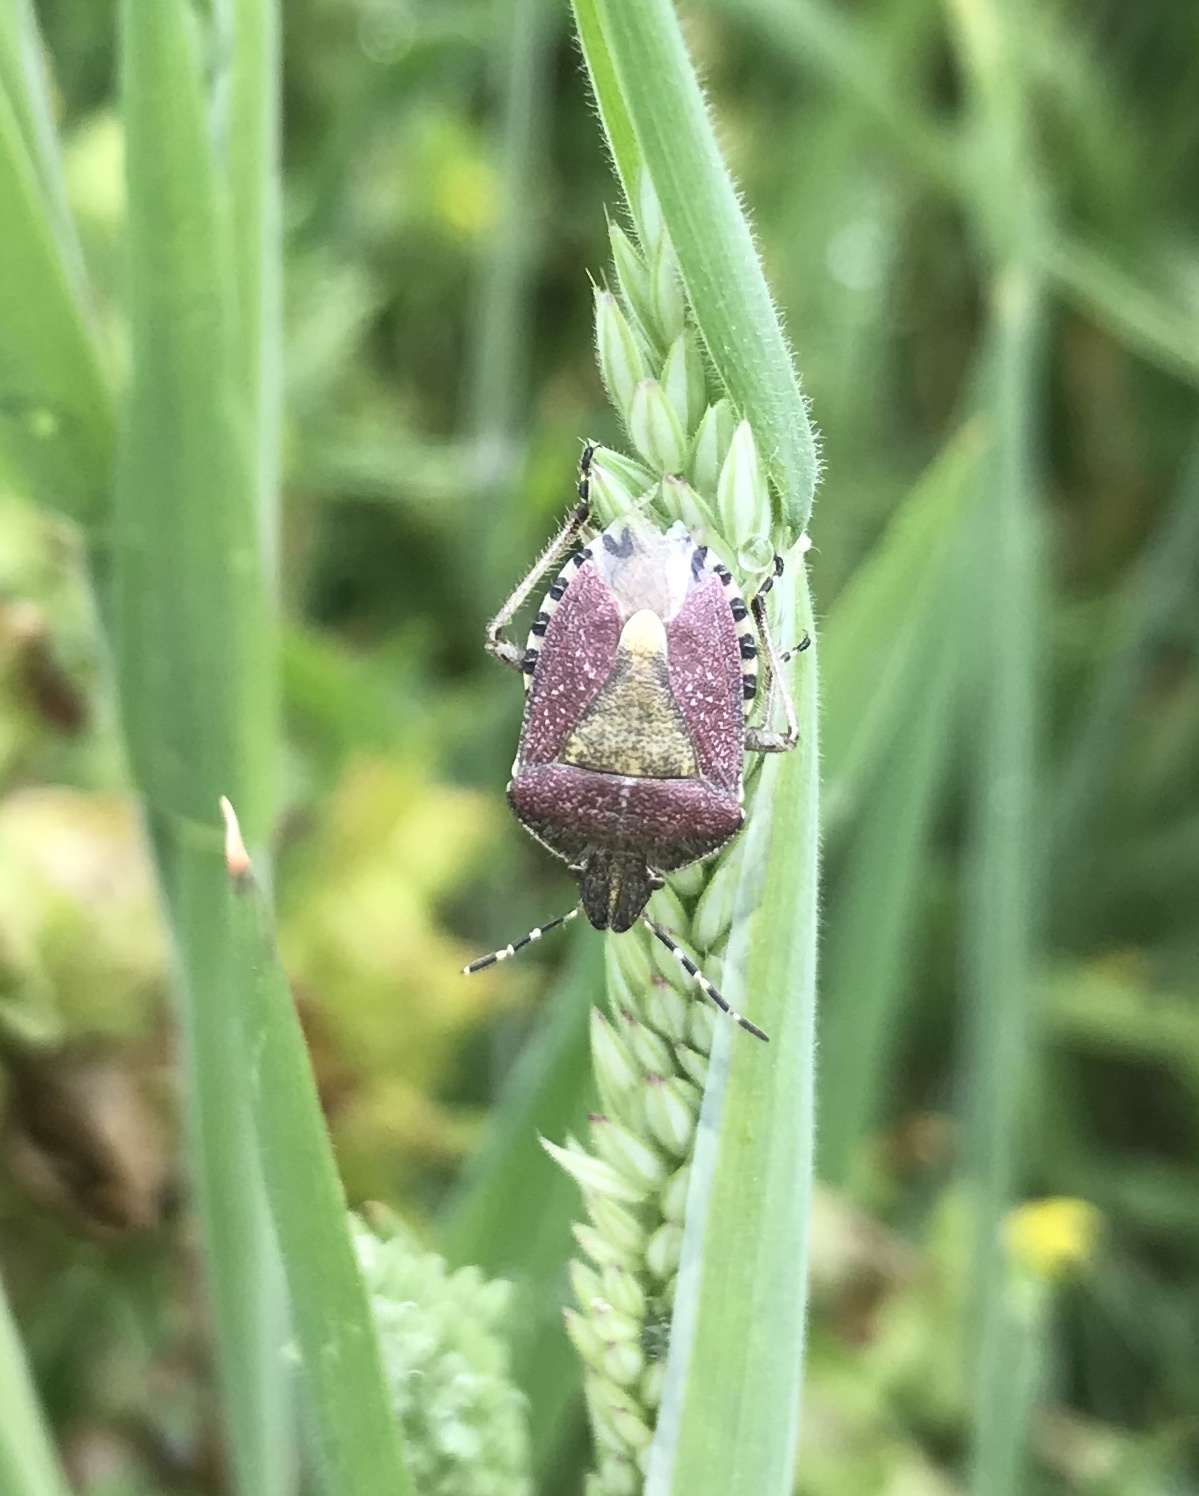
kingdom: Animalia
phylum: Arthropoda
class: Insecta
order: Hemiptera
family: Pentatomidae
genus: Dolycoris
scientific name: Dolycoris baccarum
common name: Sloe bug
